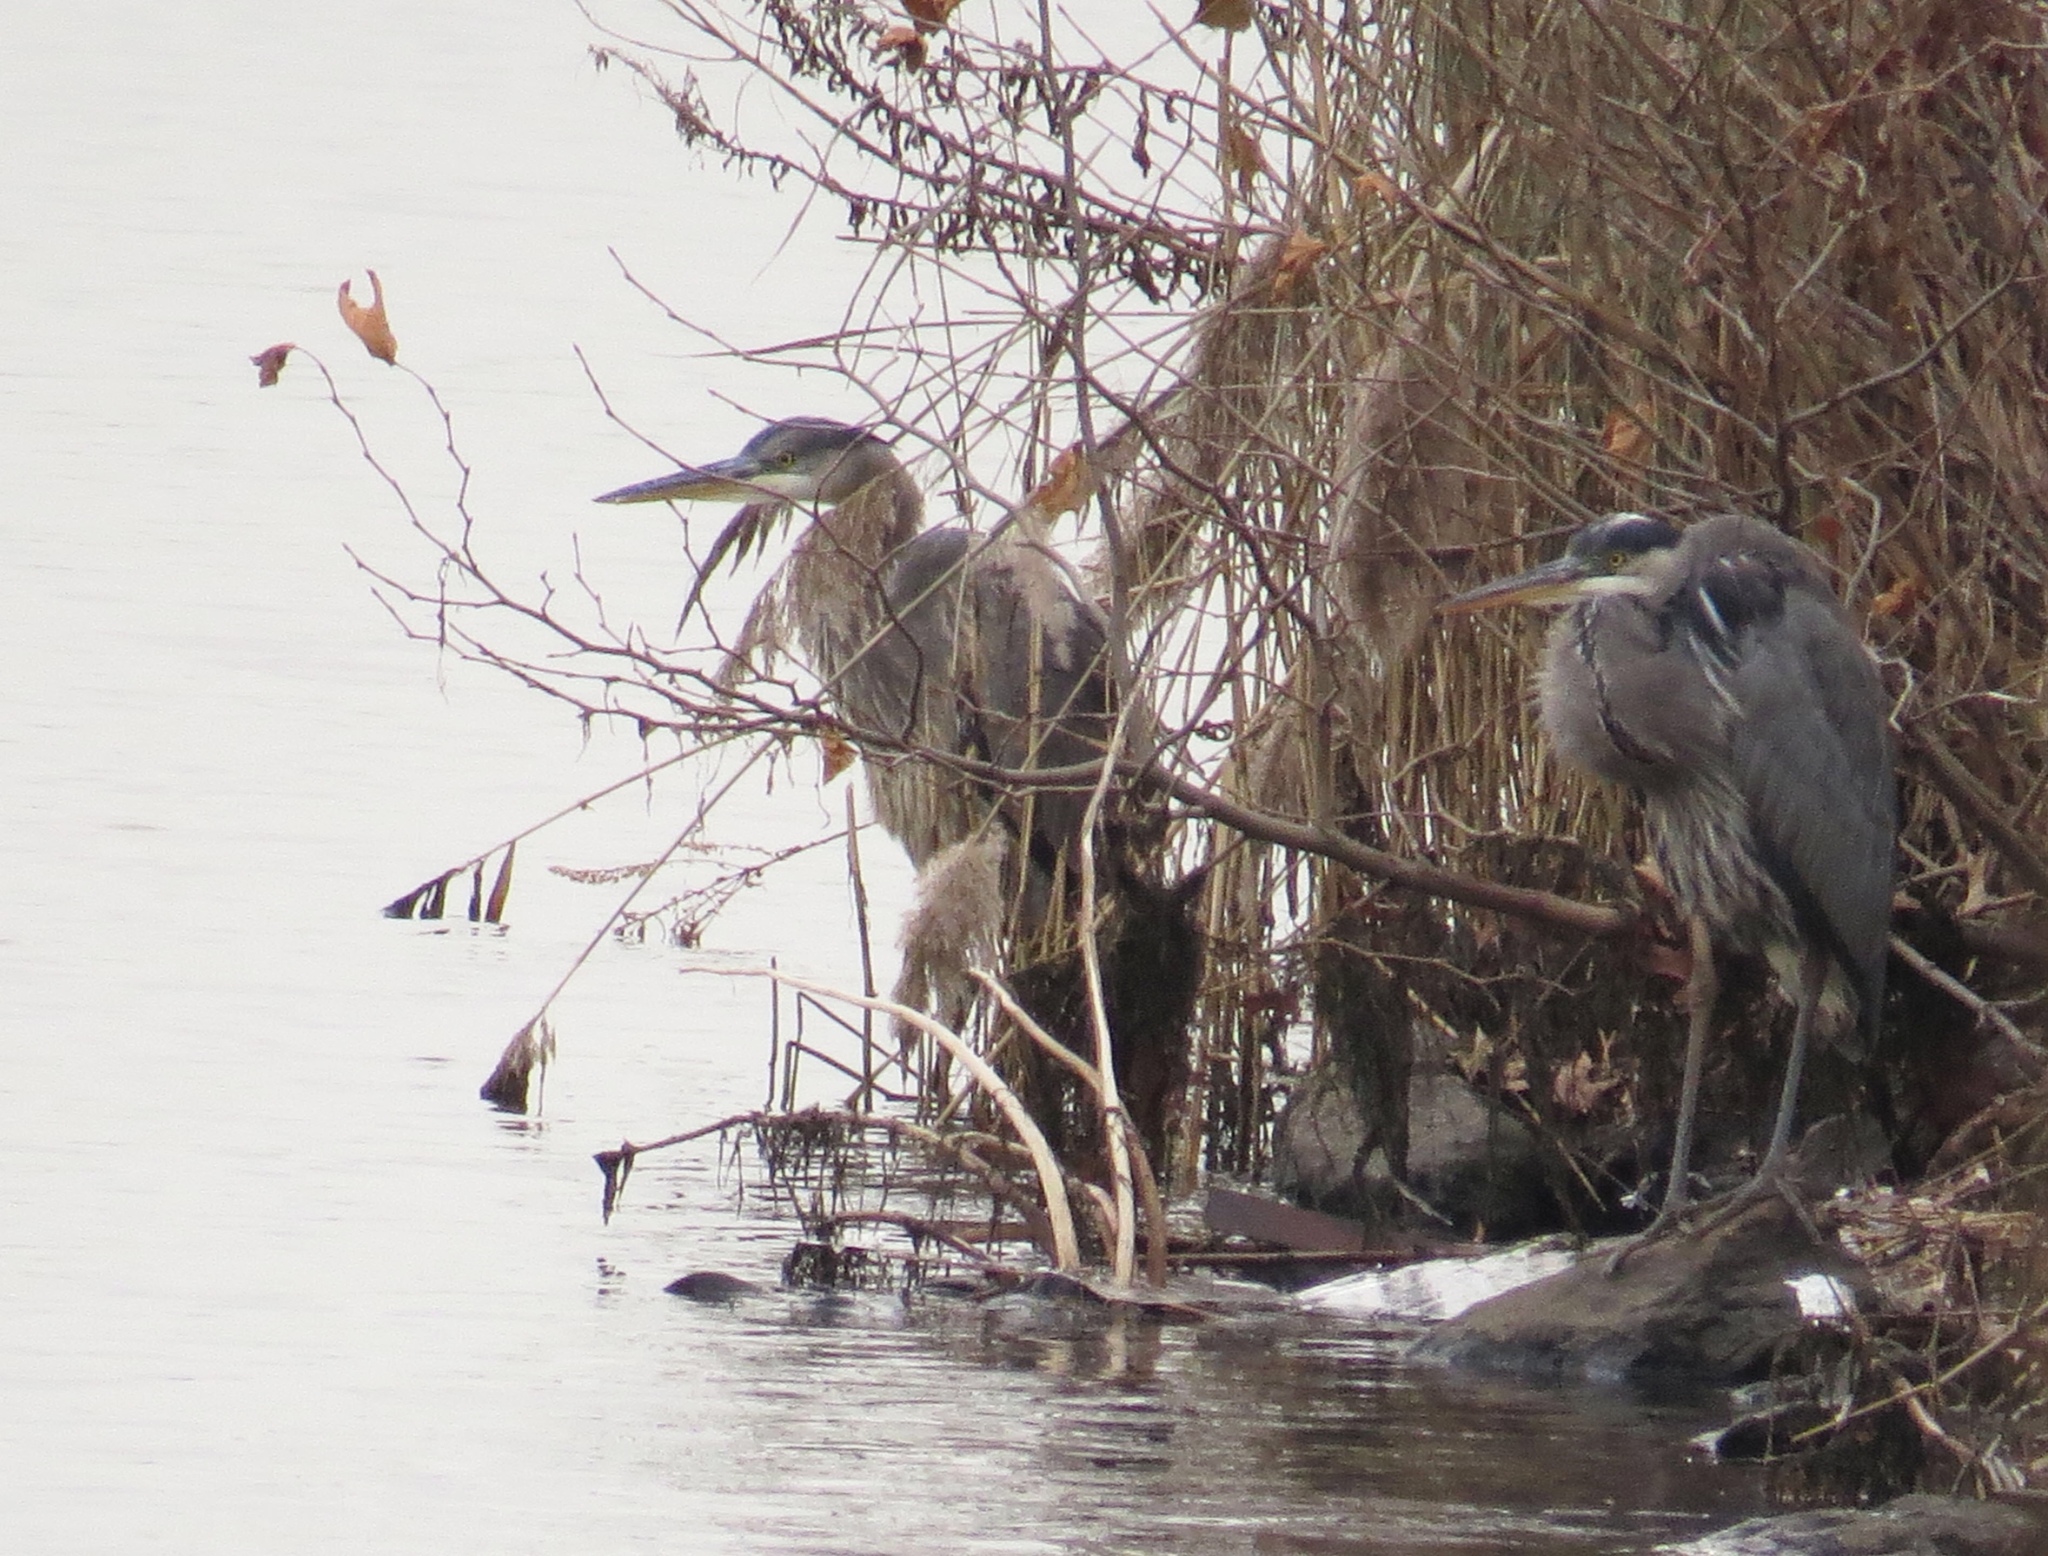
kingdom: Animalia
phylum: Chordata
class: Aves
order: Pelecaniformes
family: Ardeidae
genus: Ardea
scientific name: Ardea herodias
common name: Great blue heron
